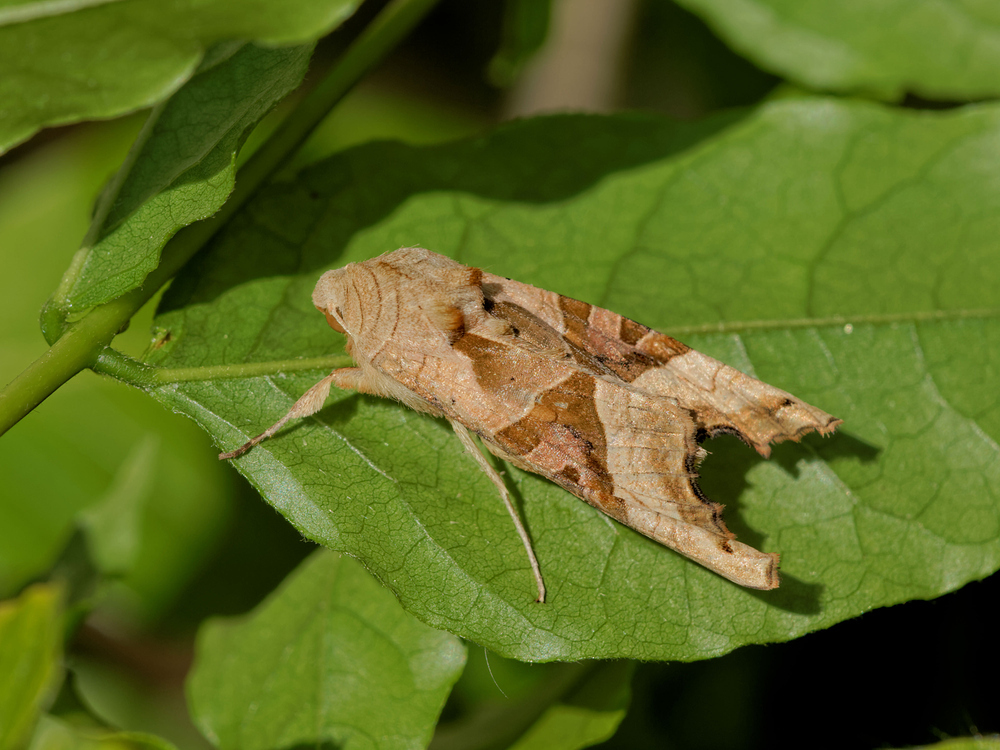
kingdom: Animalia
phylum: Arthropoda
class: Insecta
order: Lepidoptera
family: Noctuidae
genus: Phlogophora
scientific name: Phlogophora meticulosa
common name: Angle shades
